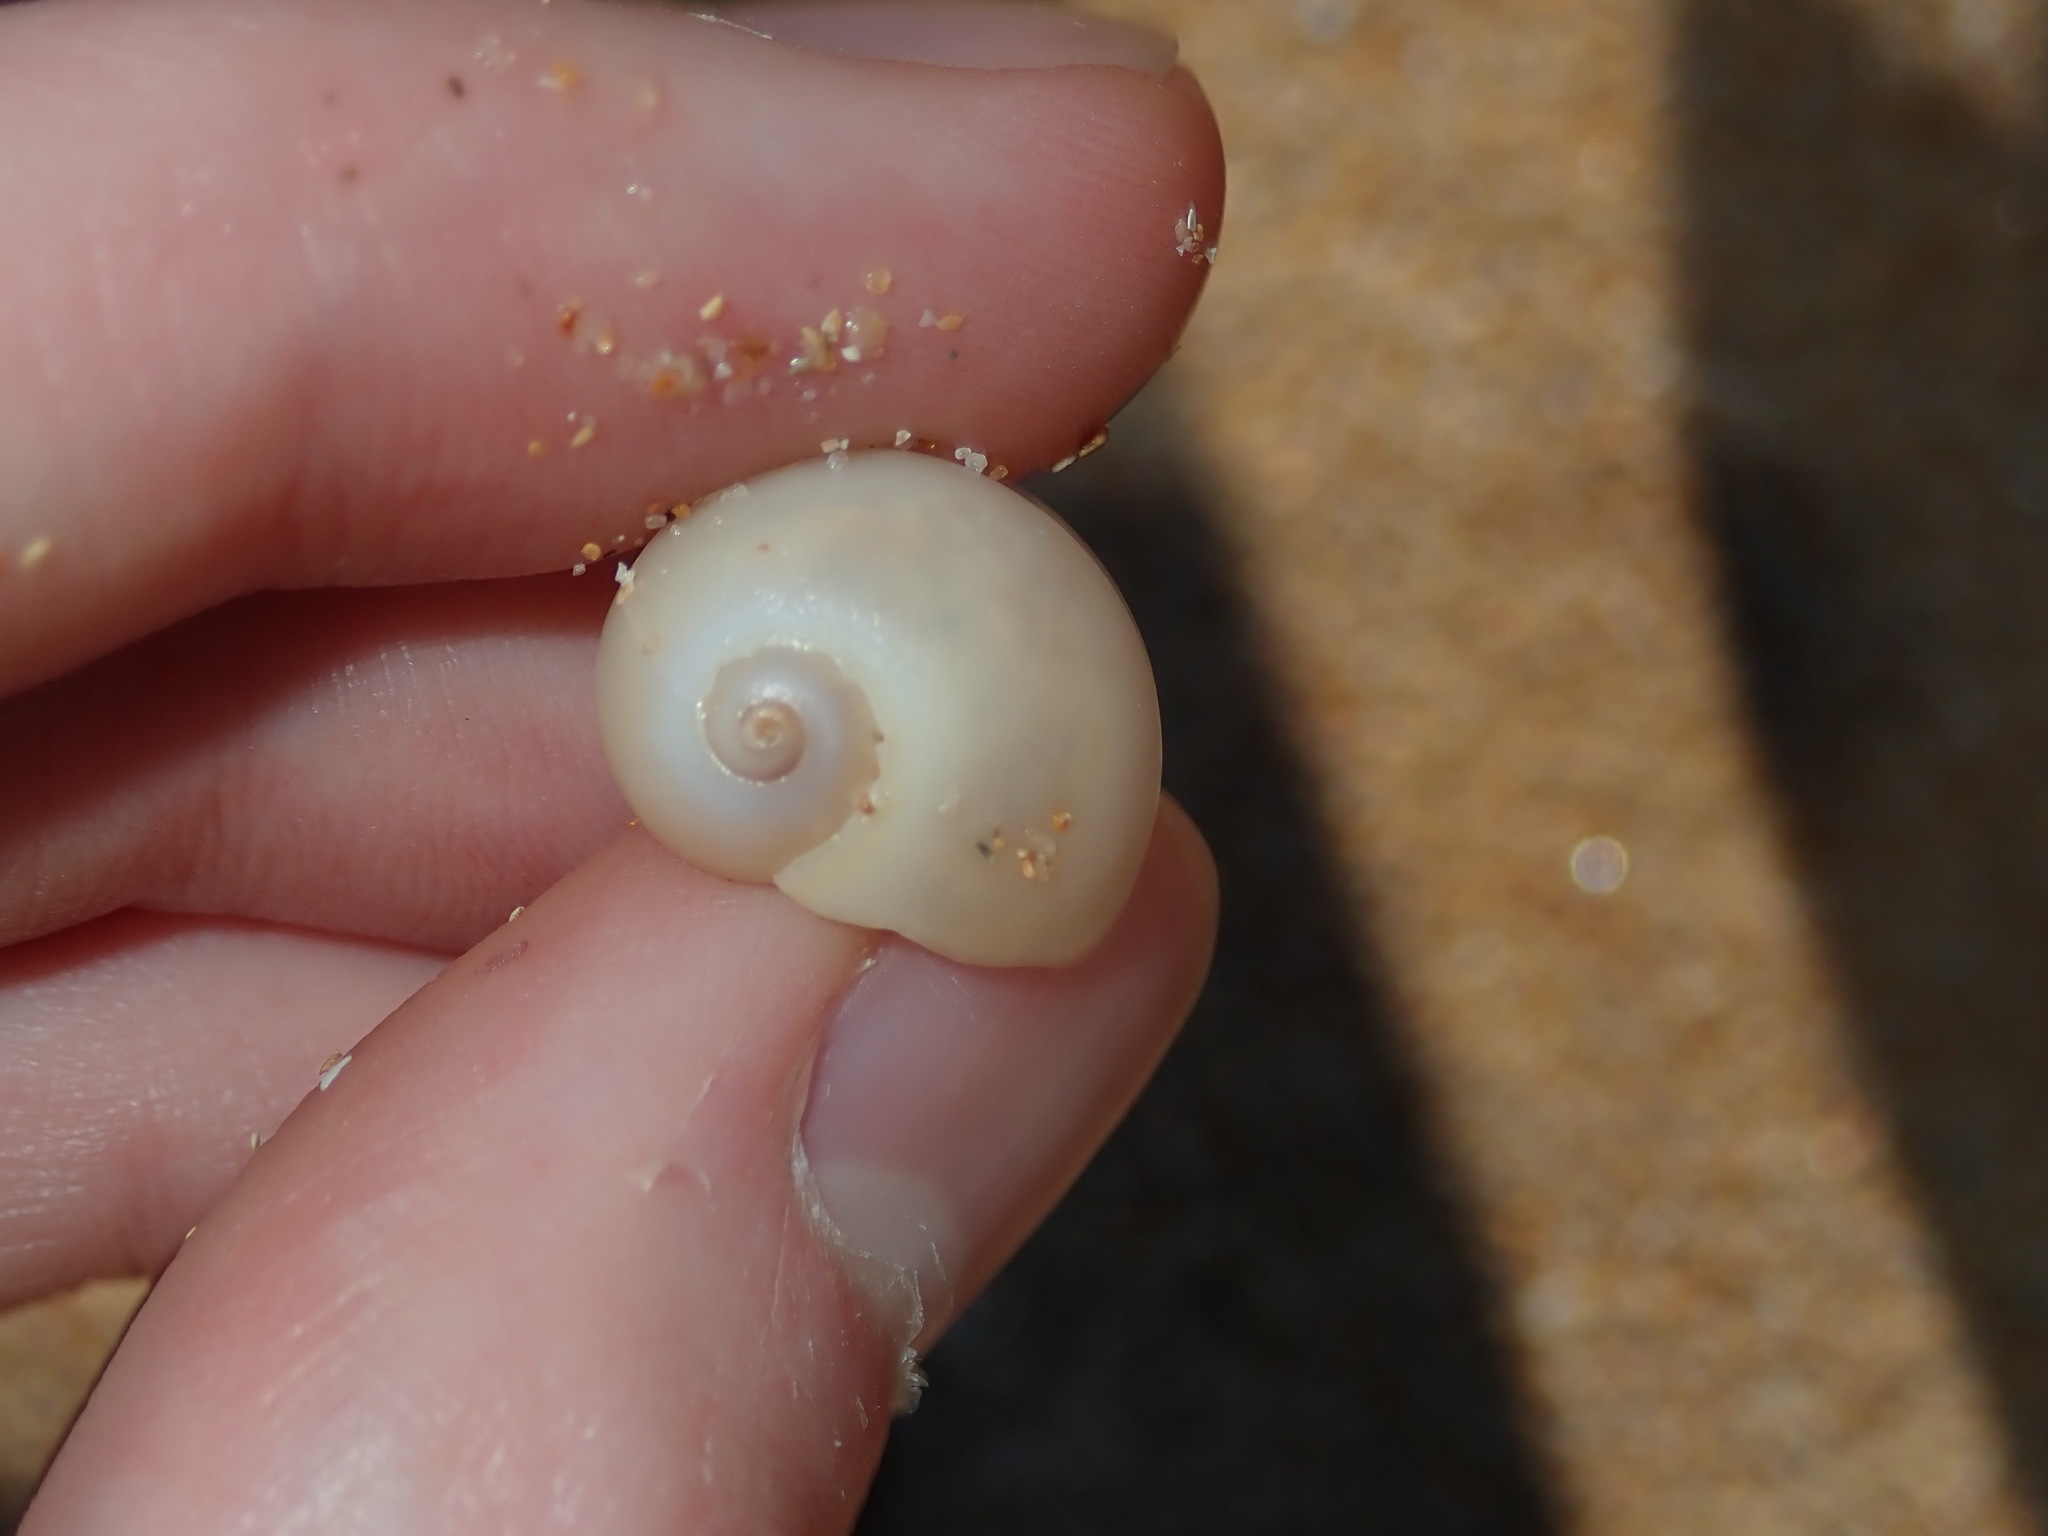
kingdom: Animalia
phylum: Mollusca
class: Gastropoda
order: Littorinimorpha
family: Naticidae
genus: Neverita
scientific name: Neverita didyma
